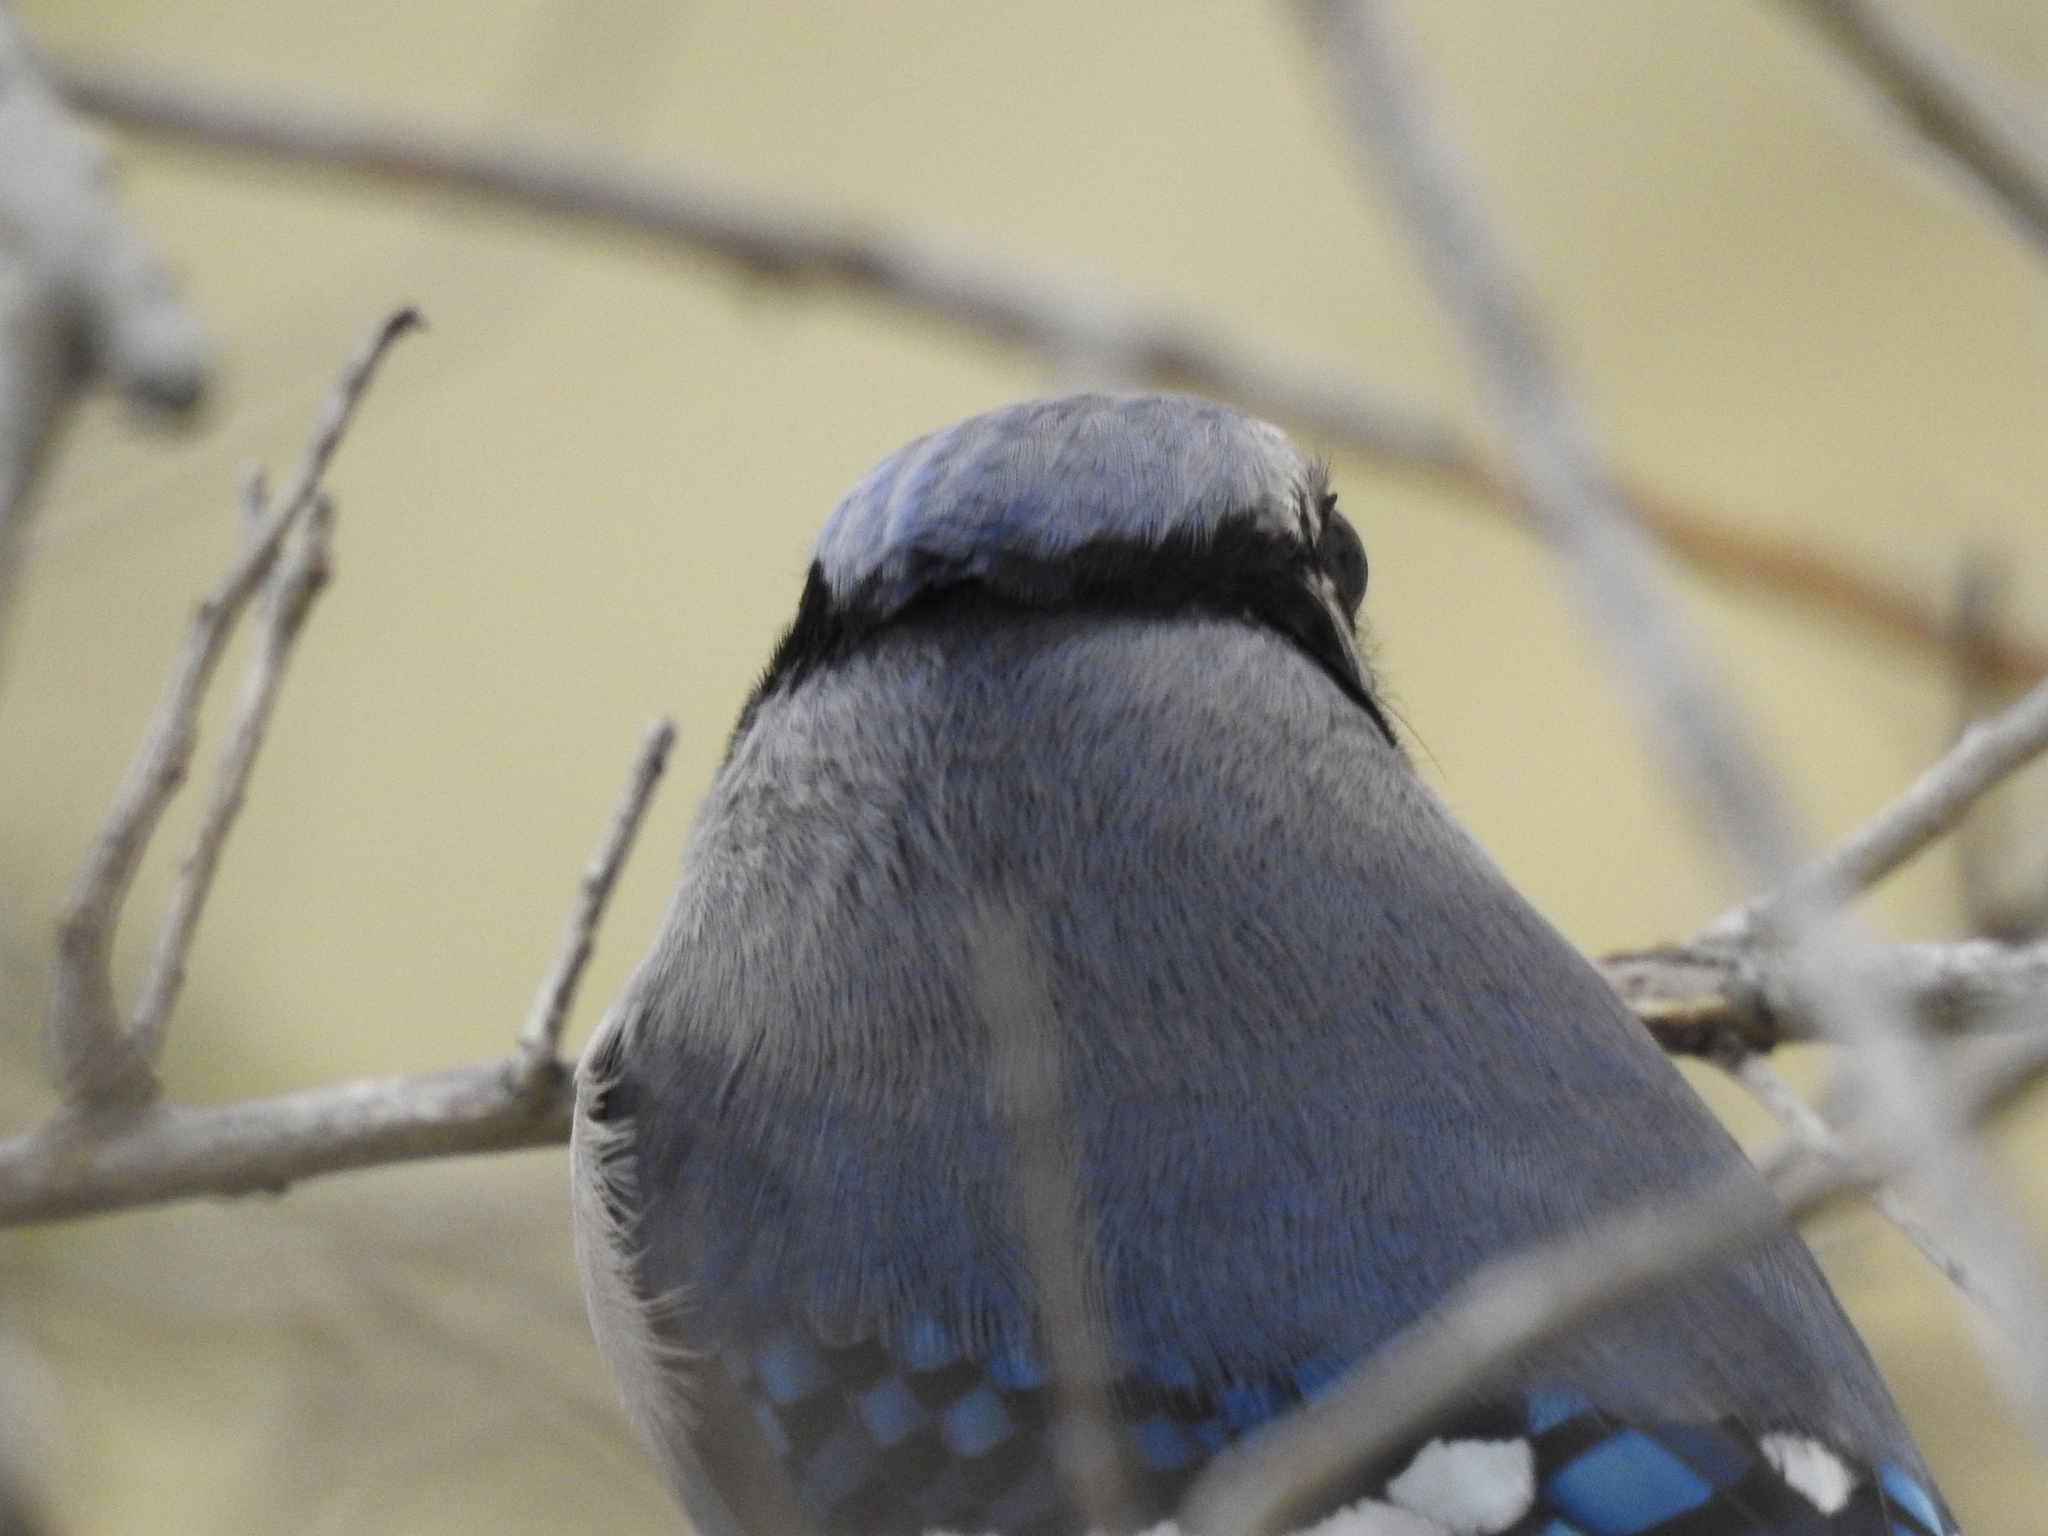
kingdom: Animalia
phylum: Chordata
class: Aves
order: Passeriformes
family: Corvidae
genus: Cyanocitta
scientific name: Cyanocitta cristata
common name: Blue jay
